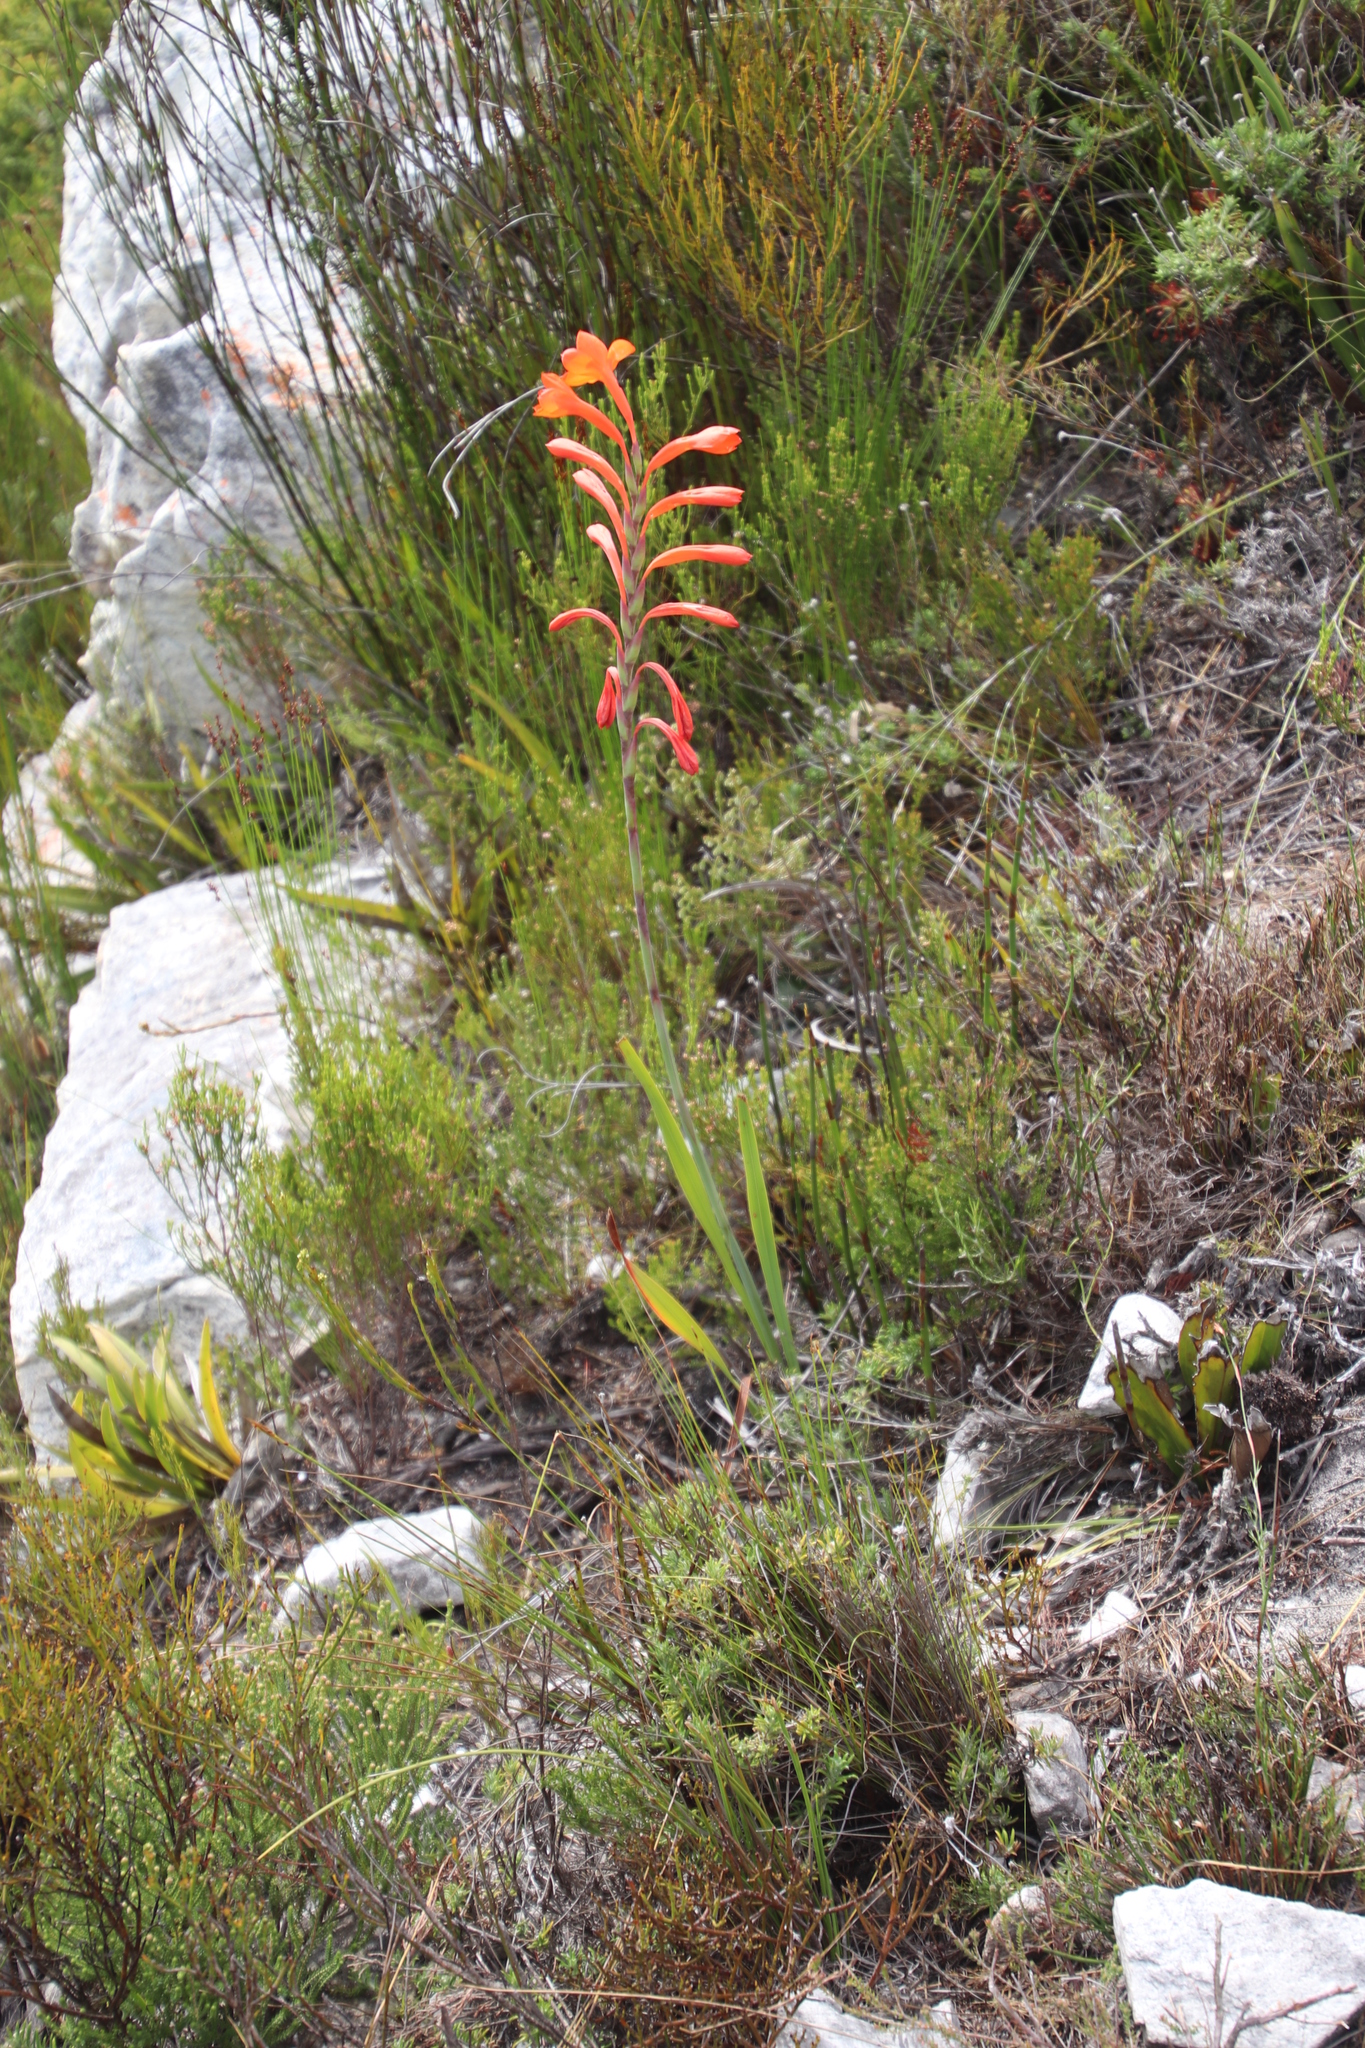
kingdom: Plantae
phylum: Tracheophyta
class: Liliopsida
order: Asparagales
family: Iridaceae
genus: Watsonia
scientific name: Watsonia schlechteri
